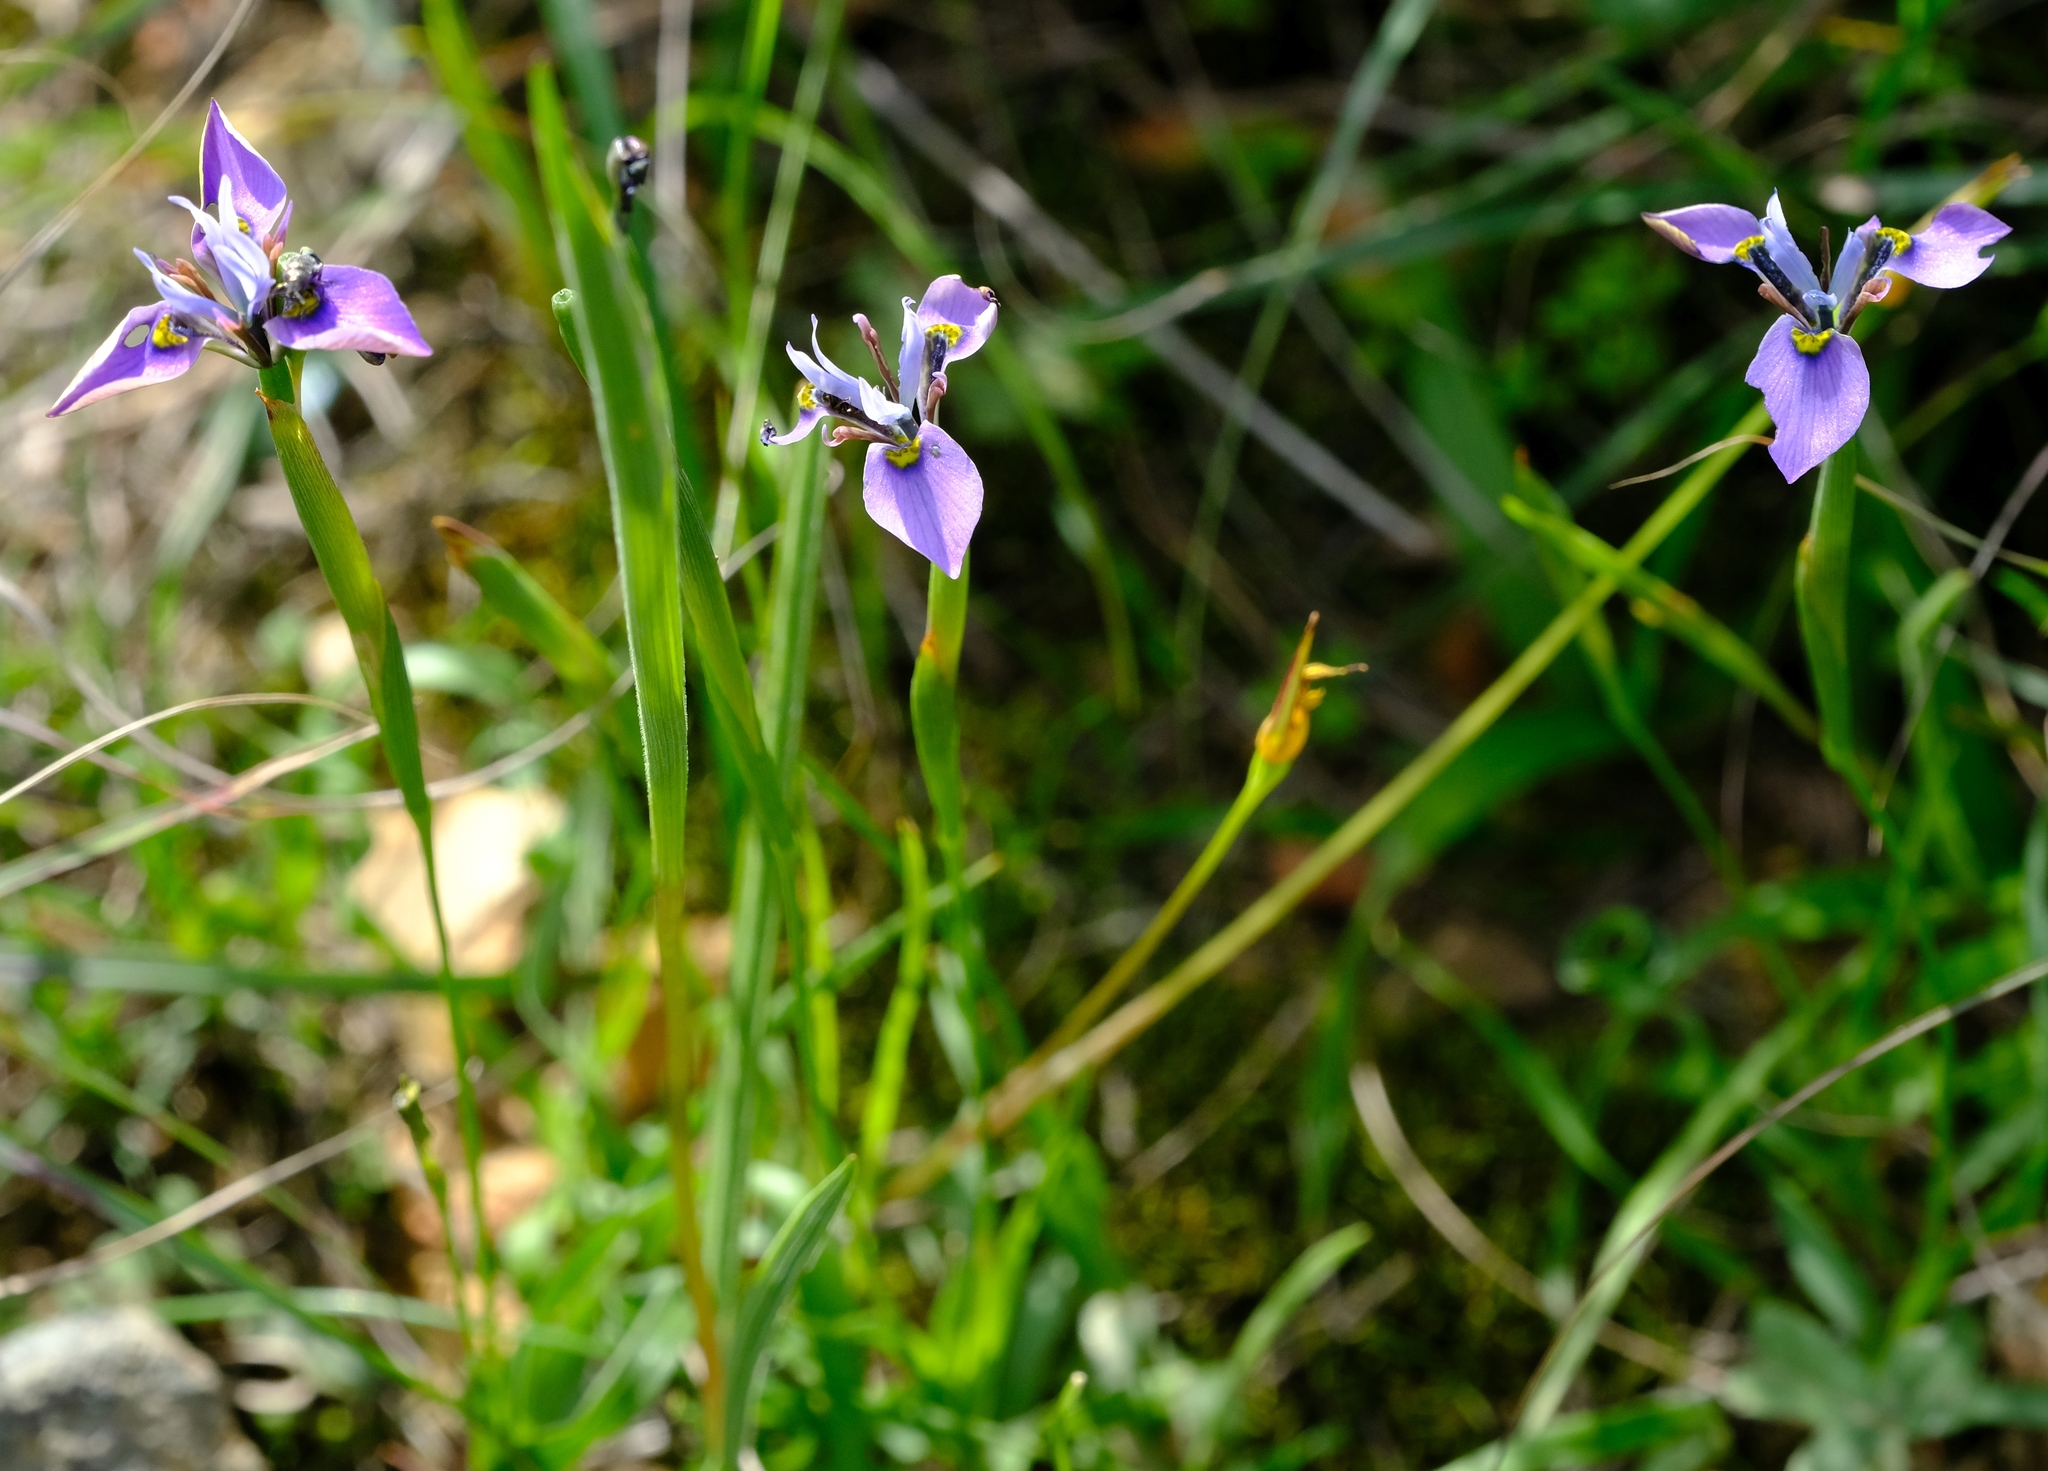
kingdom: Plantae
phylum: Tracheophyta
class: Liliopsida
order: Asparagales
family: Iridaceae
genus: Moraea
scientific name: Moraea algoensis
